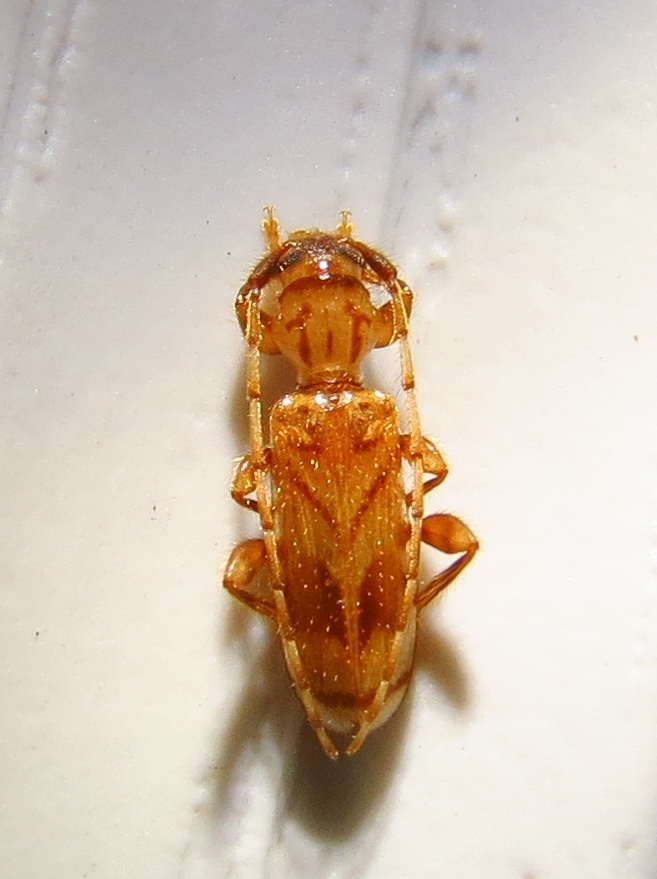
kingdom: Animalia
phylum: Arthropoda
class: Insecta
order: Coleoptera
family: Cerambycidae
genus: Obrium
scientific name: Obrium maculatum
